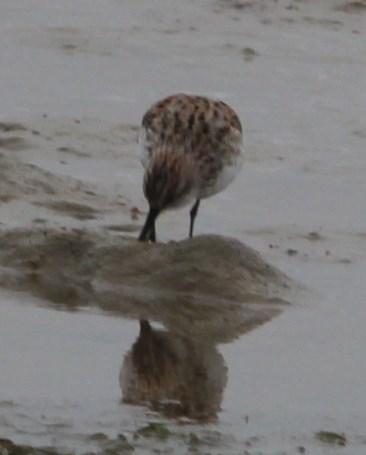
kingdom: Animalia
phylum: Chordata
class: Aves
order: Charadriiformes
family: Scolopacidae
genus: Calidris
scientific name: Calidris minuta
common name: Little stint
